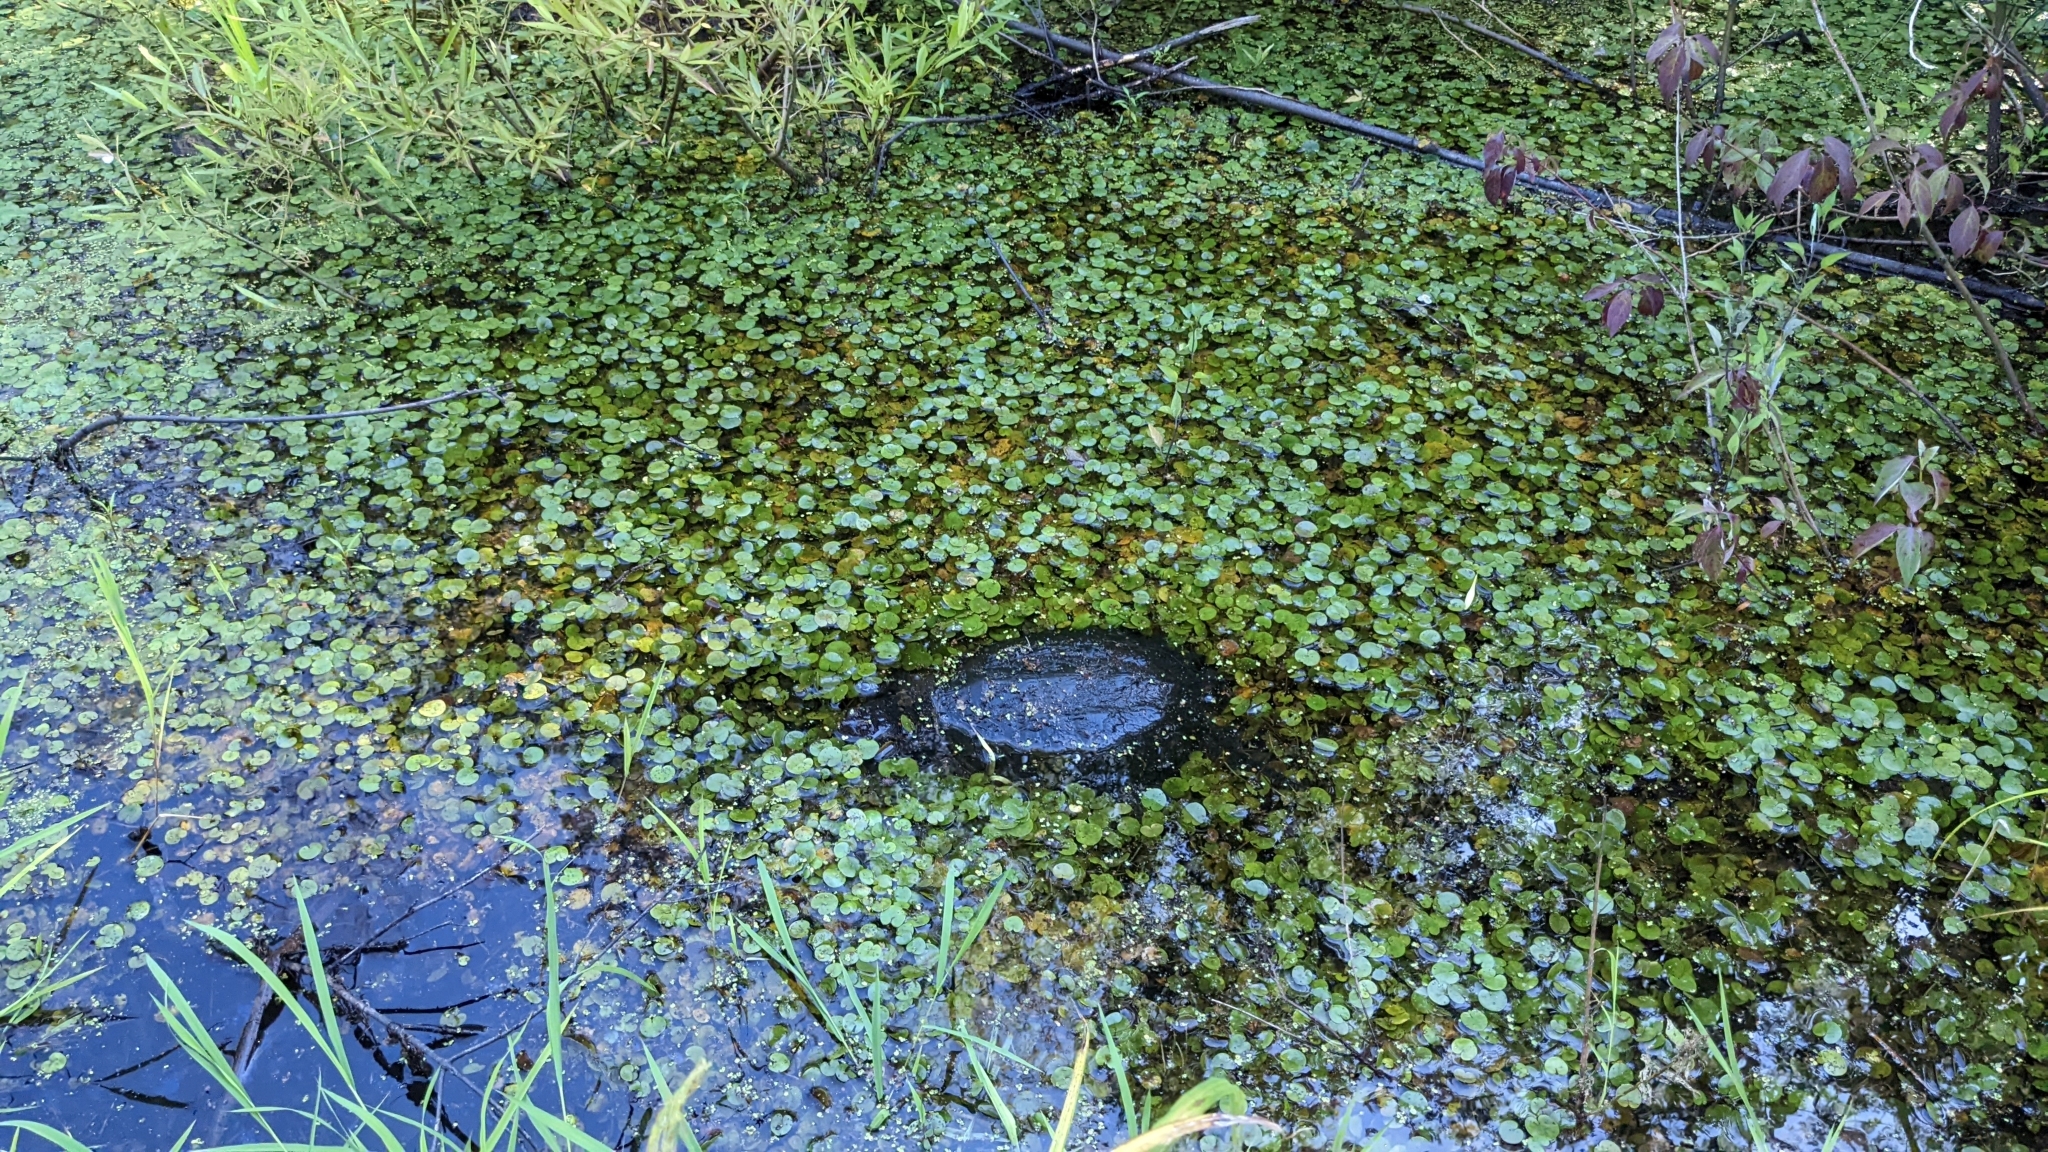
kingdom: Animalia
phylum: Chordata
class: Testudines
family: Chelydridae
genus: Chelydra
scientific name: Chelydra serpentina
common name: Common snapping turtle
